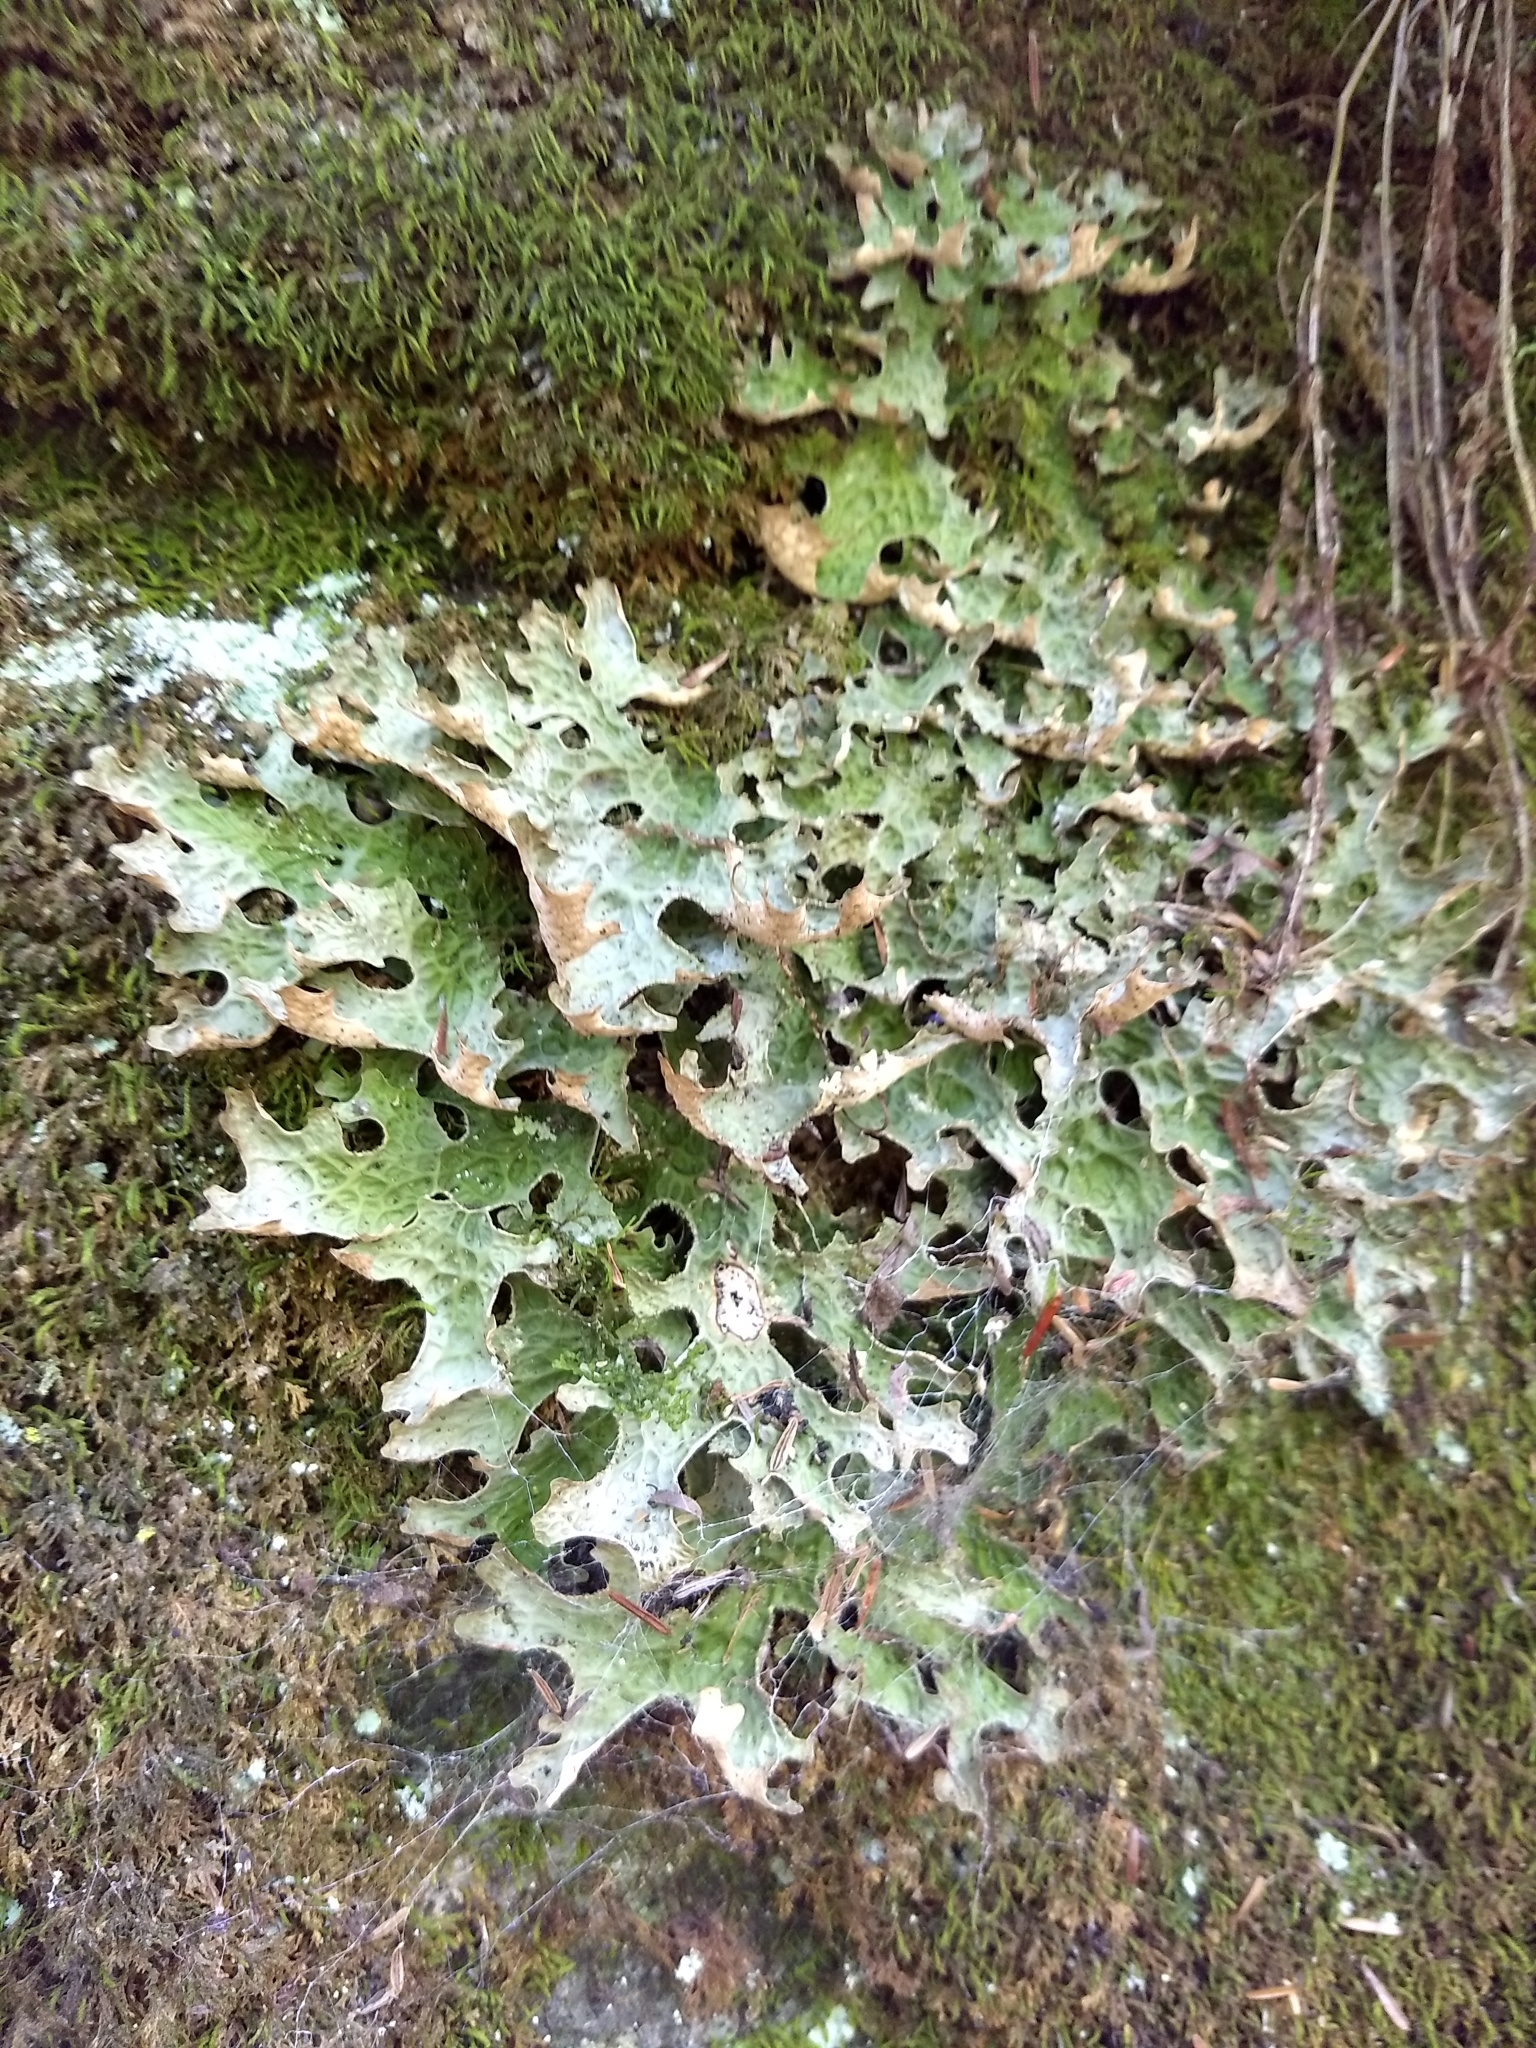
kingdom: Fungi
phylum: Ascomycota
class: Lecanoromycetes
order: Peltigerales
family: Lobariaceae
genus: Lobaria
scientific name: Lobaria pulmonaria
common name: Lungwort
